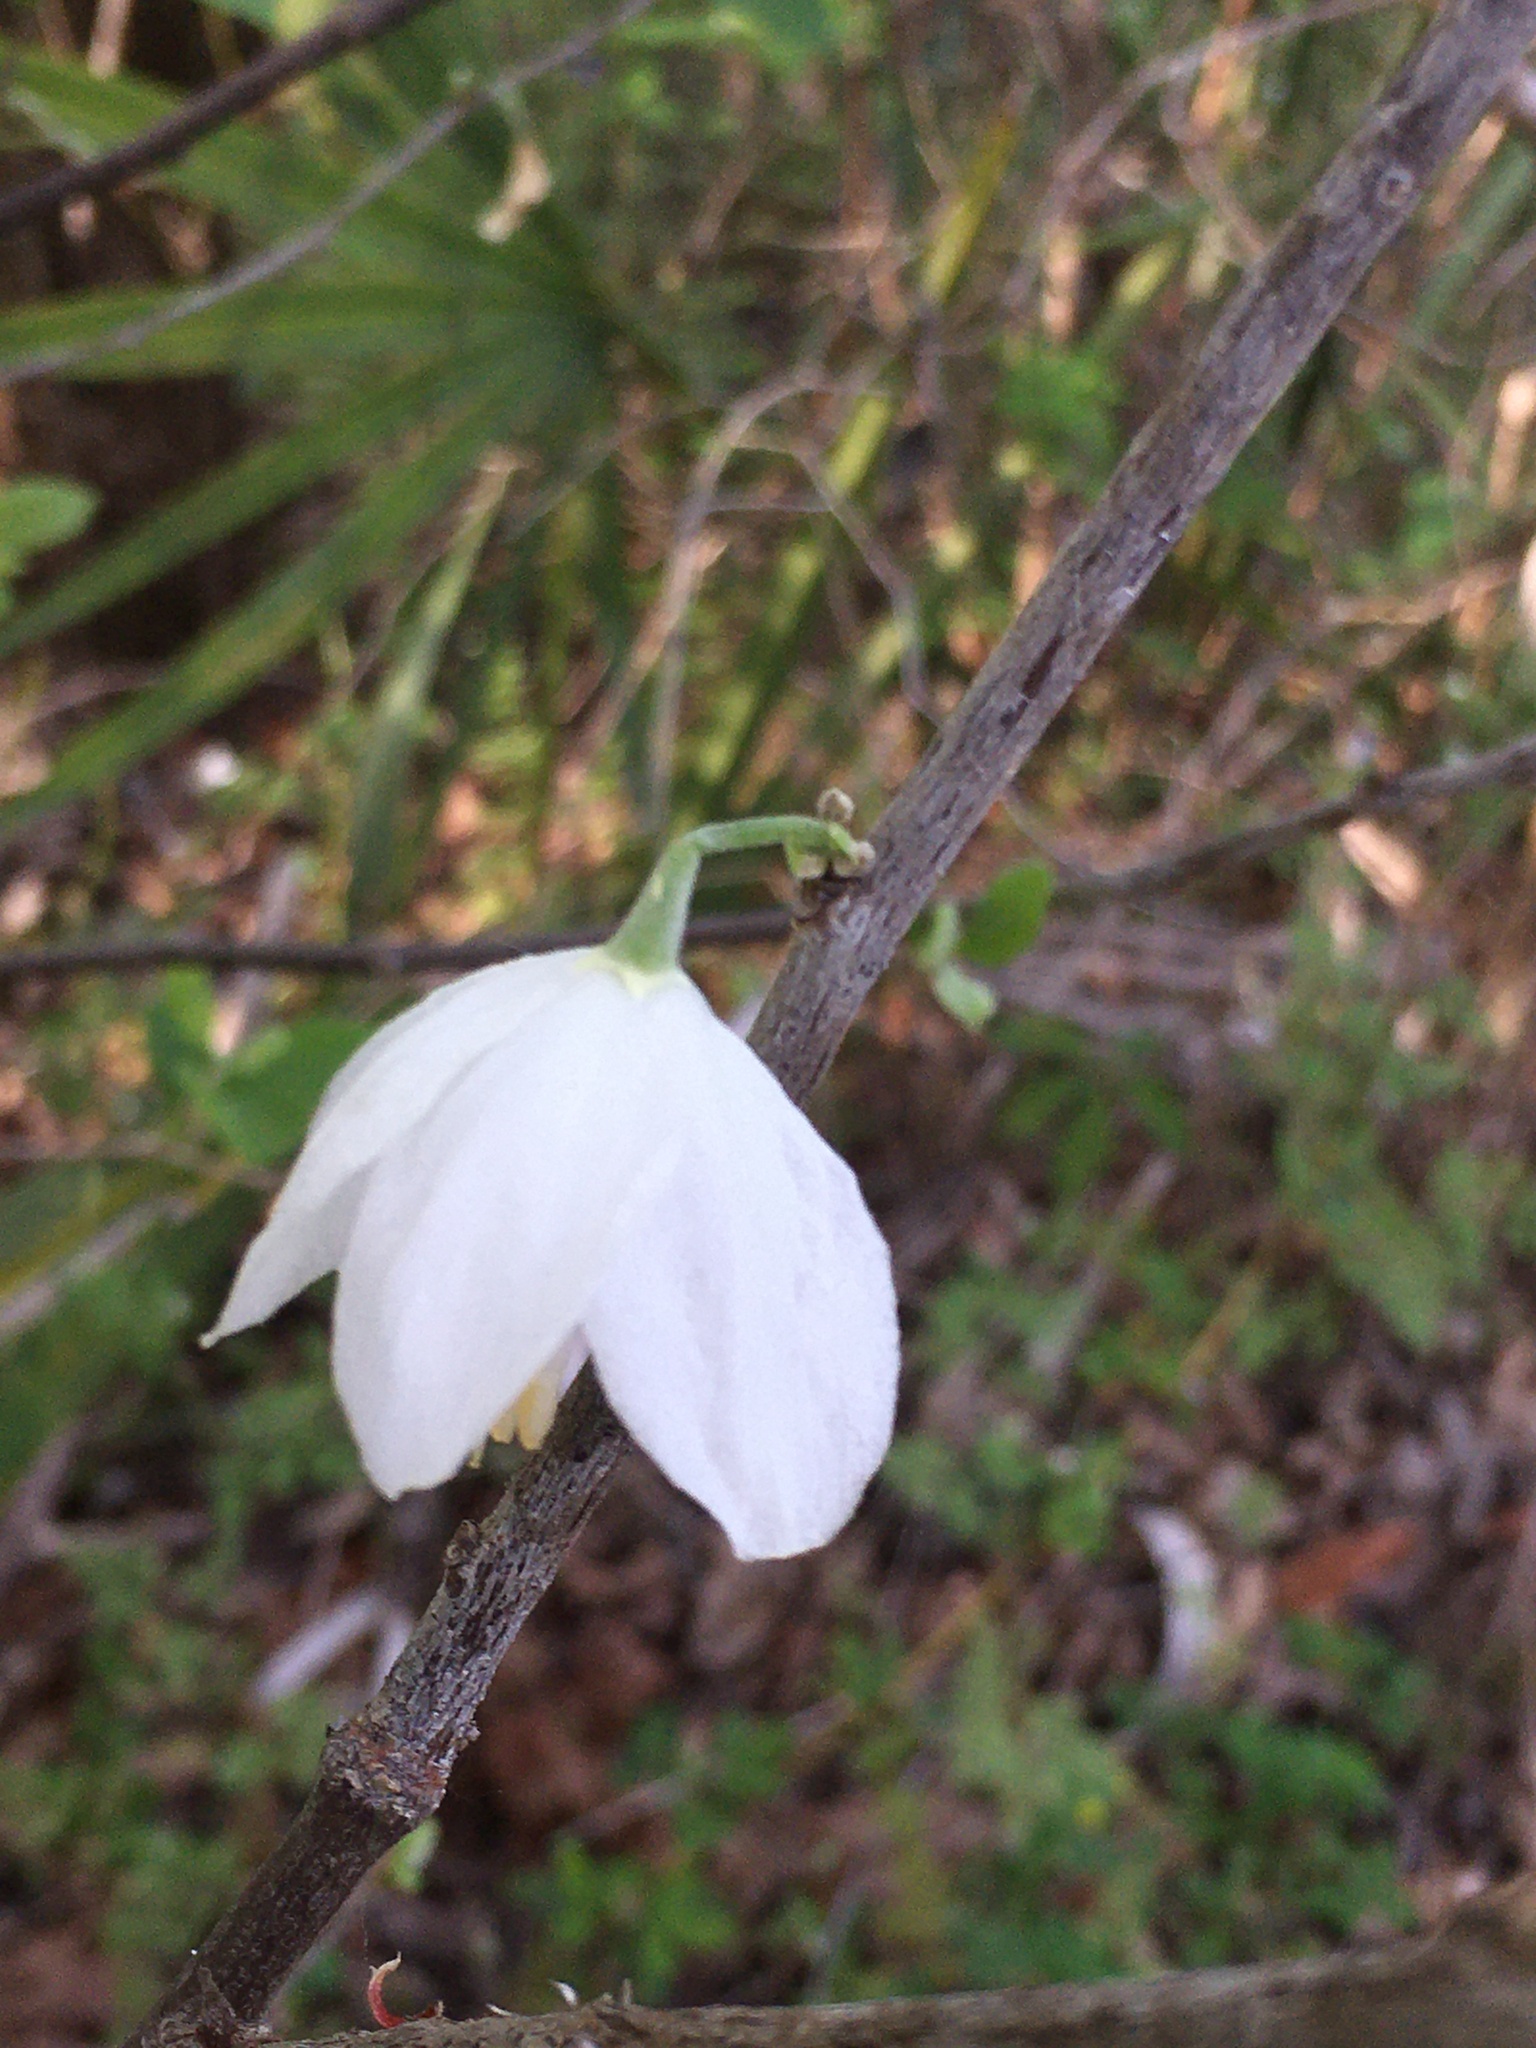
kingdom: Plantae
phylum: Tracheophyta
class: Magnoliopsida
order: Ericales
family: Styracaceae
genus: Halesia
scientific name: Halesia diptera
